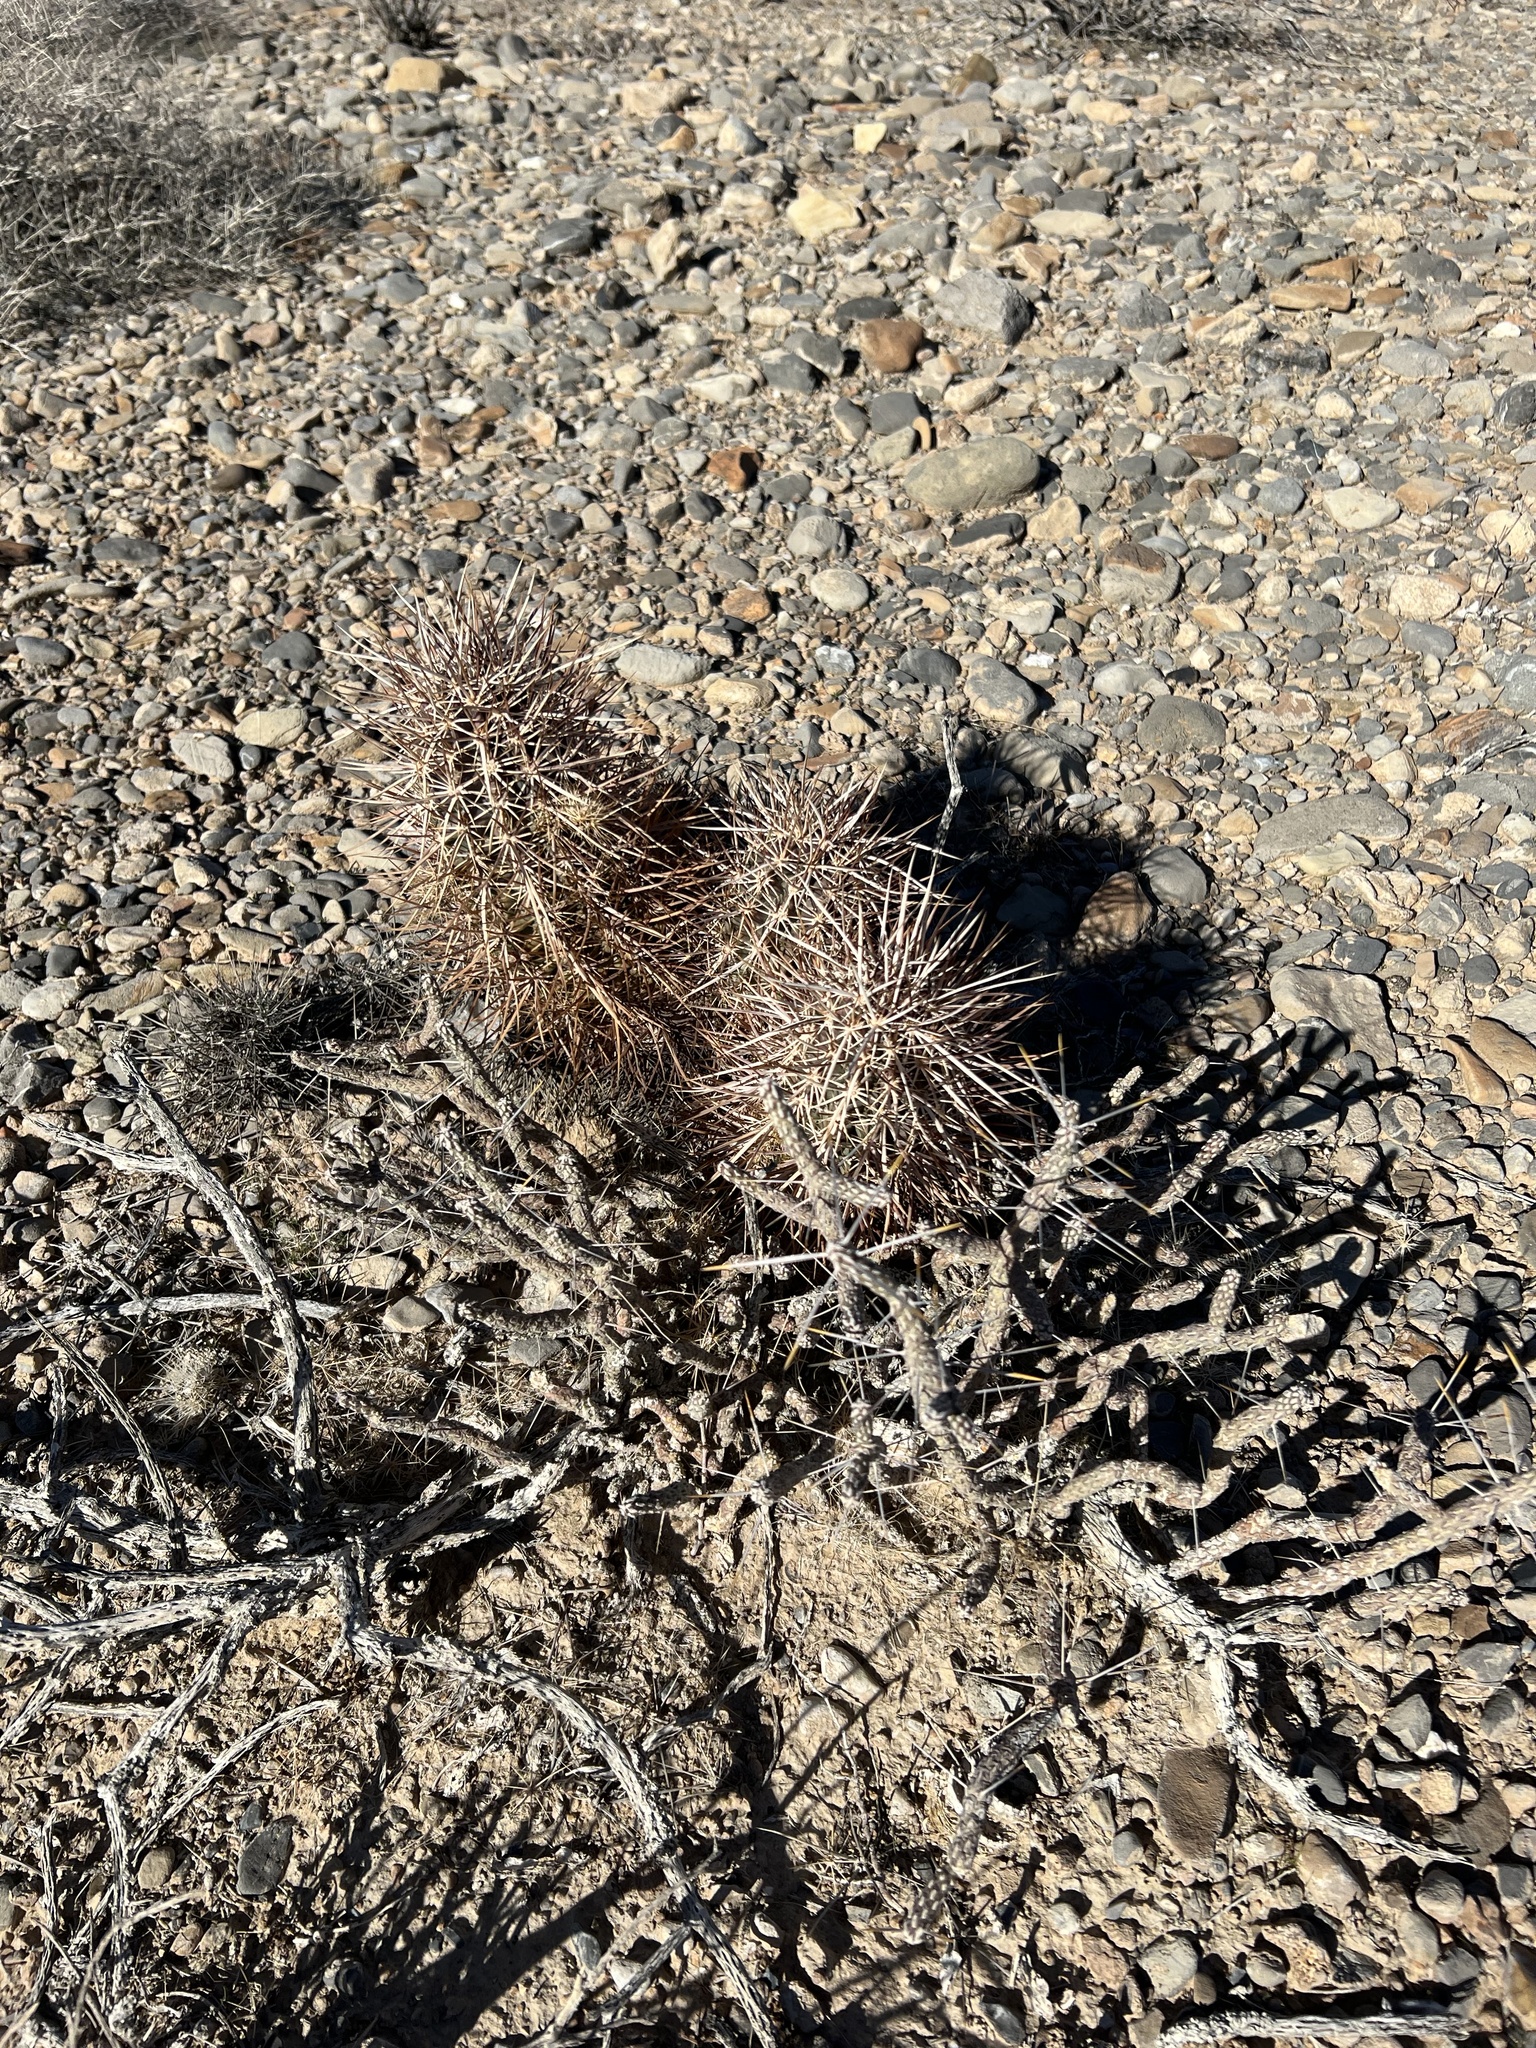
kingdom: Plantae
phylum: Tracheophyta
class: Magnoliopsida
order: Caryophyllales
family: Cactaceae
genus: Echinocereus
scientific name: Echinocereus engelmannii
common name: Engelmann's hedgehog cactus
